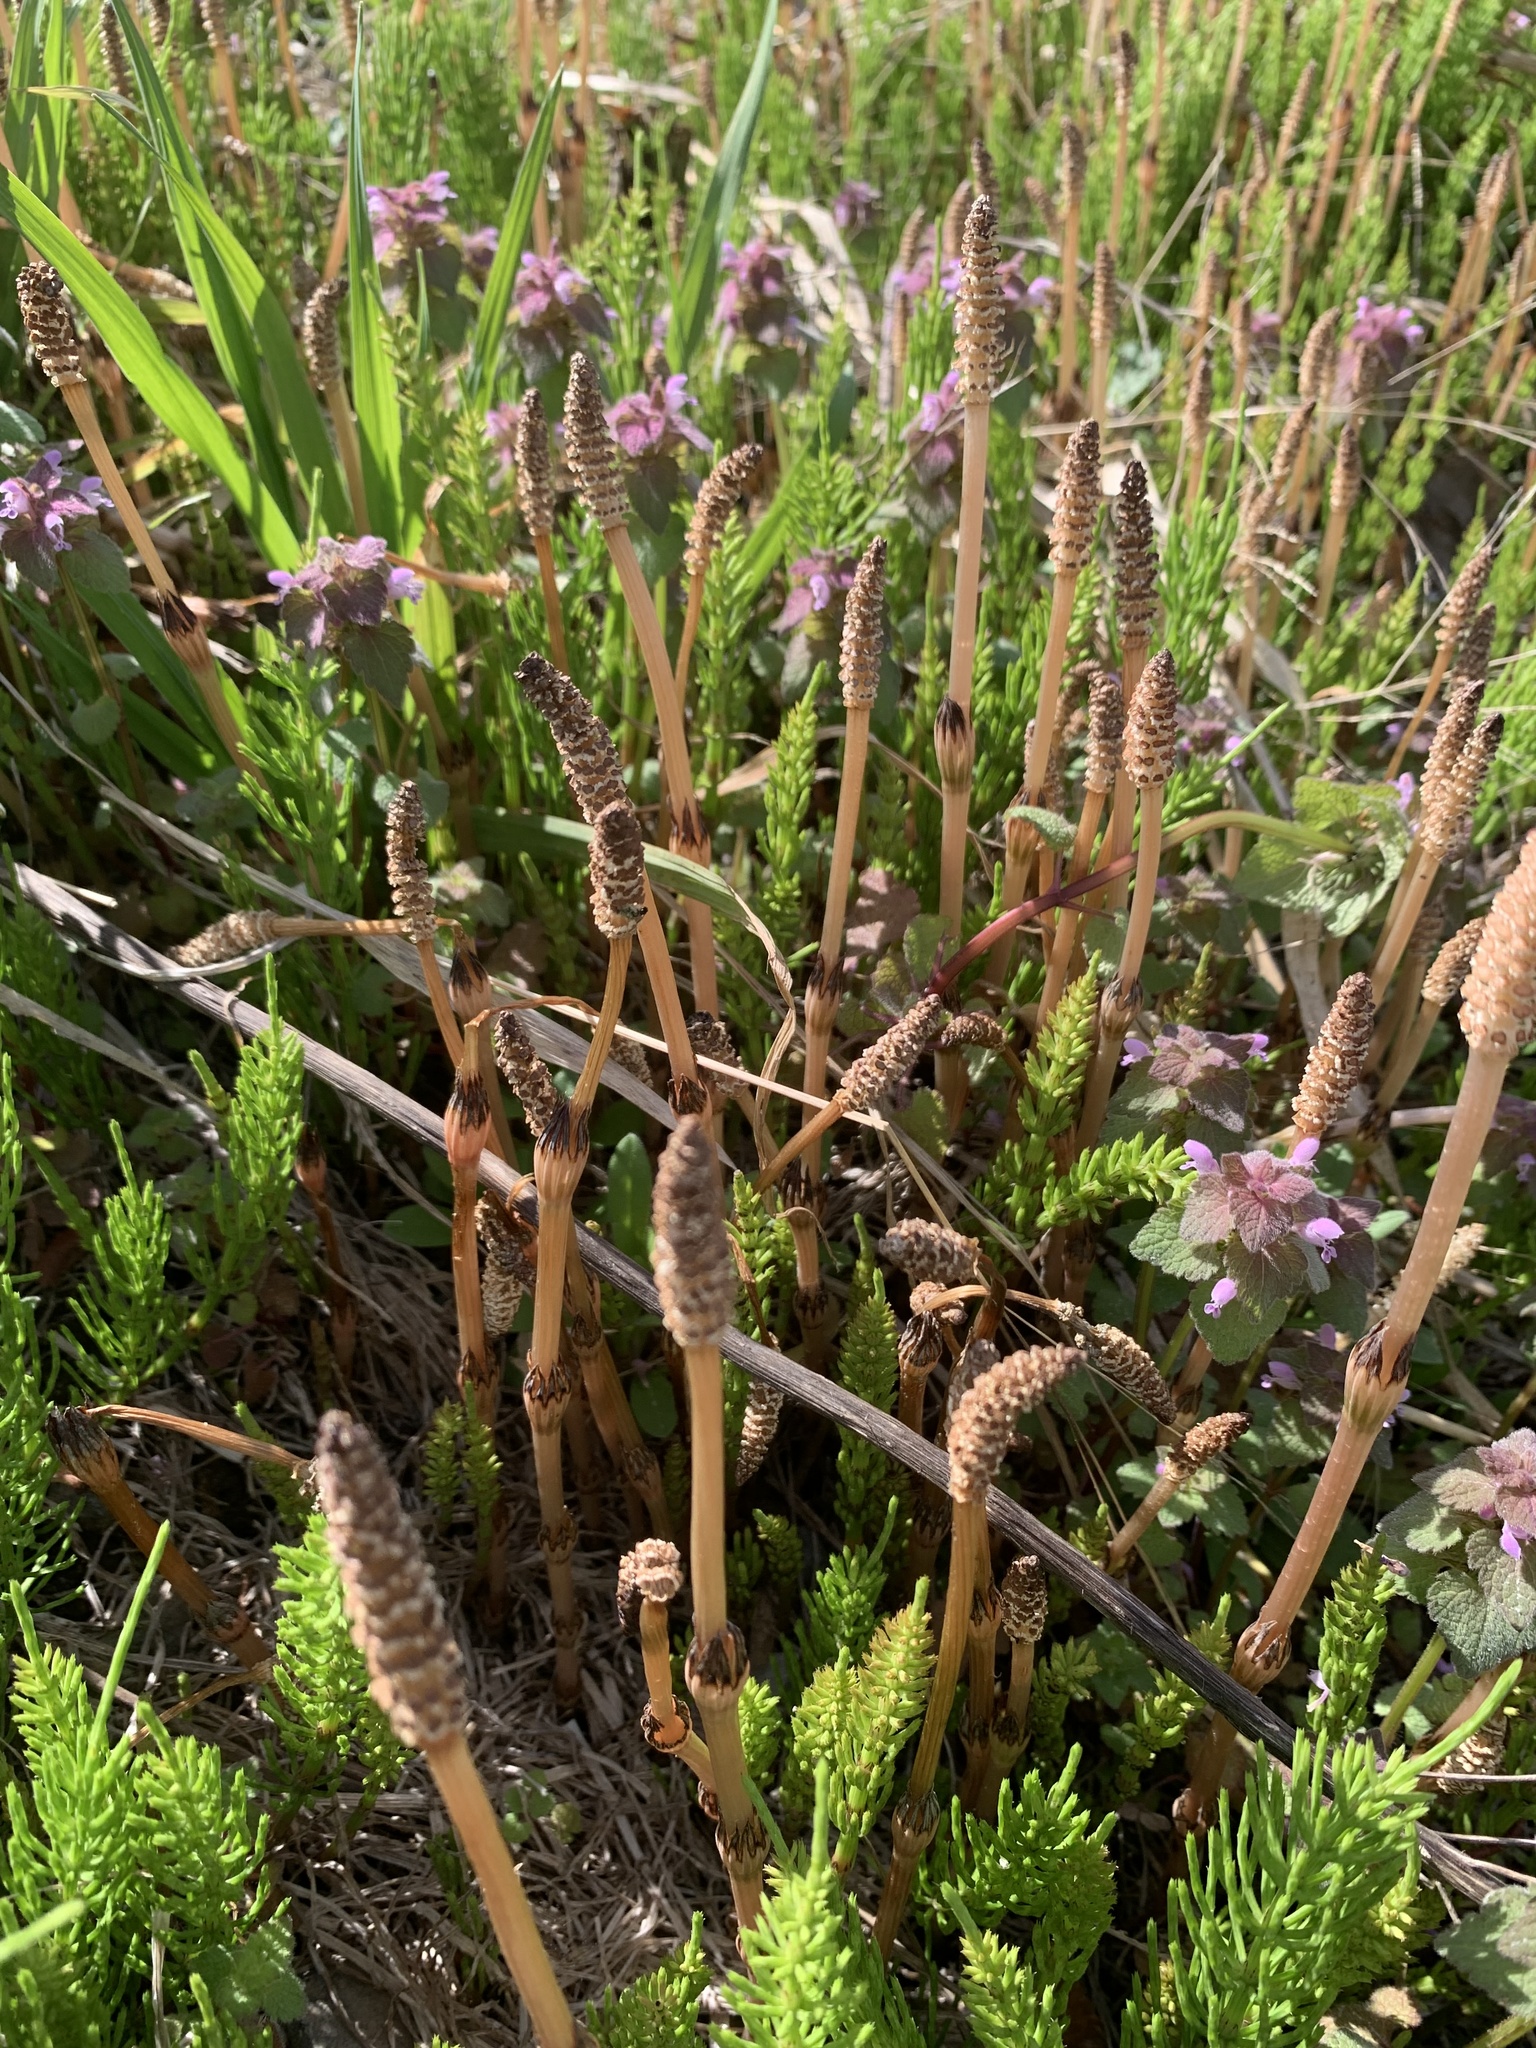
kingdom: Plantae
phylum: Tracheophyta
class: Polypodiopsida
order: Equisetales
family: Equisetaceae
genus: Equisetum
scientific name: Equisetum arvense
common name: Field horsetail
